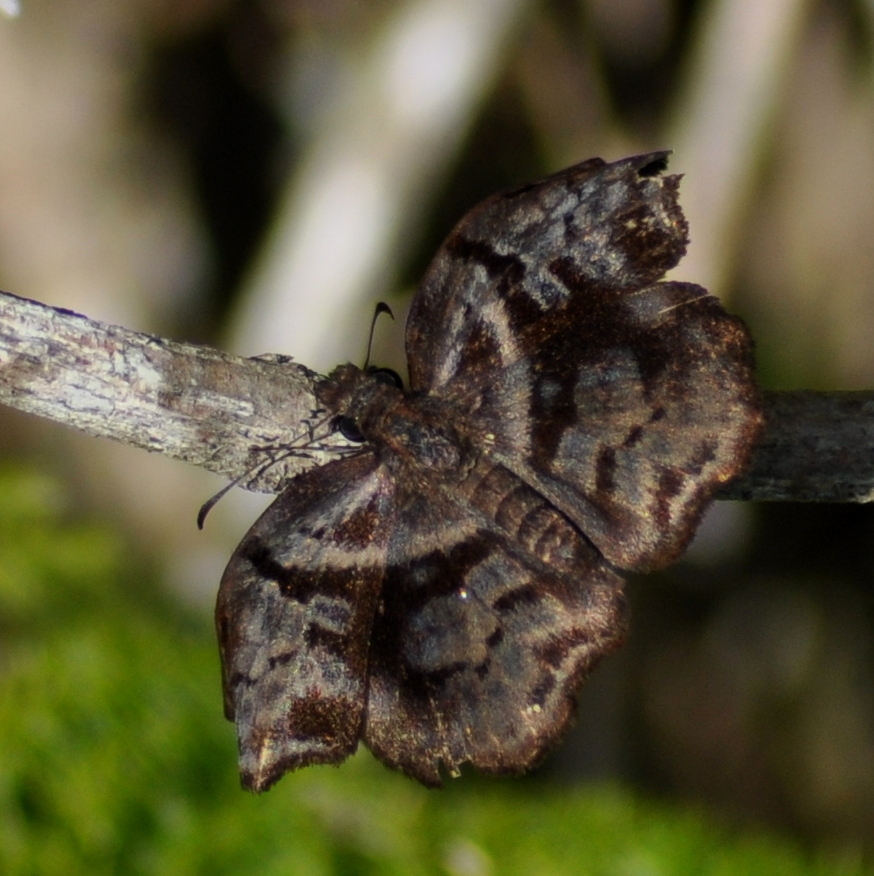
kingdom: Animalia
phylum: Arthropoda
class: Insecta
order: Lepidoptera
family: Hesperiidae
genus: Helias
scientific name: Helias phalaenoides
